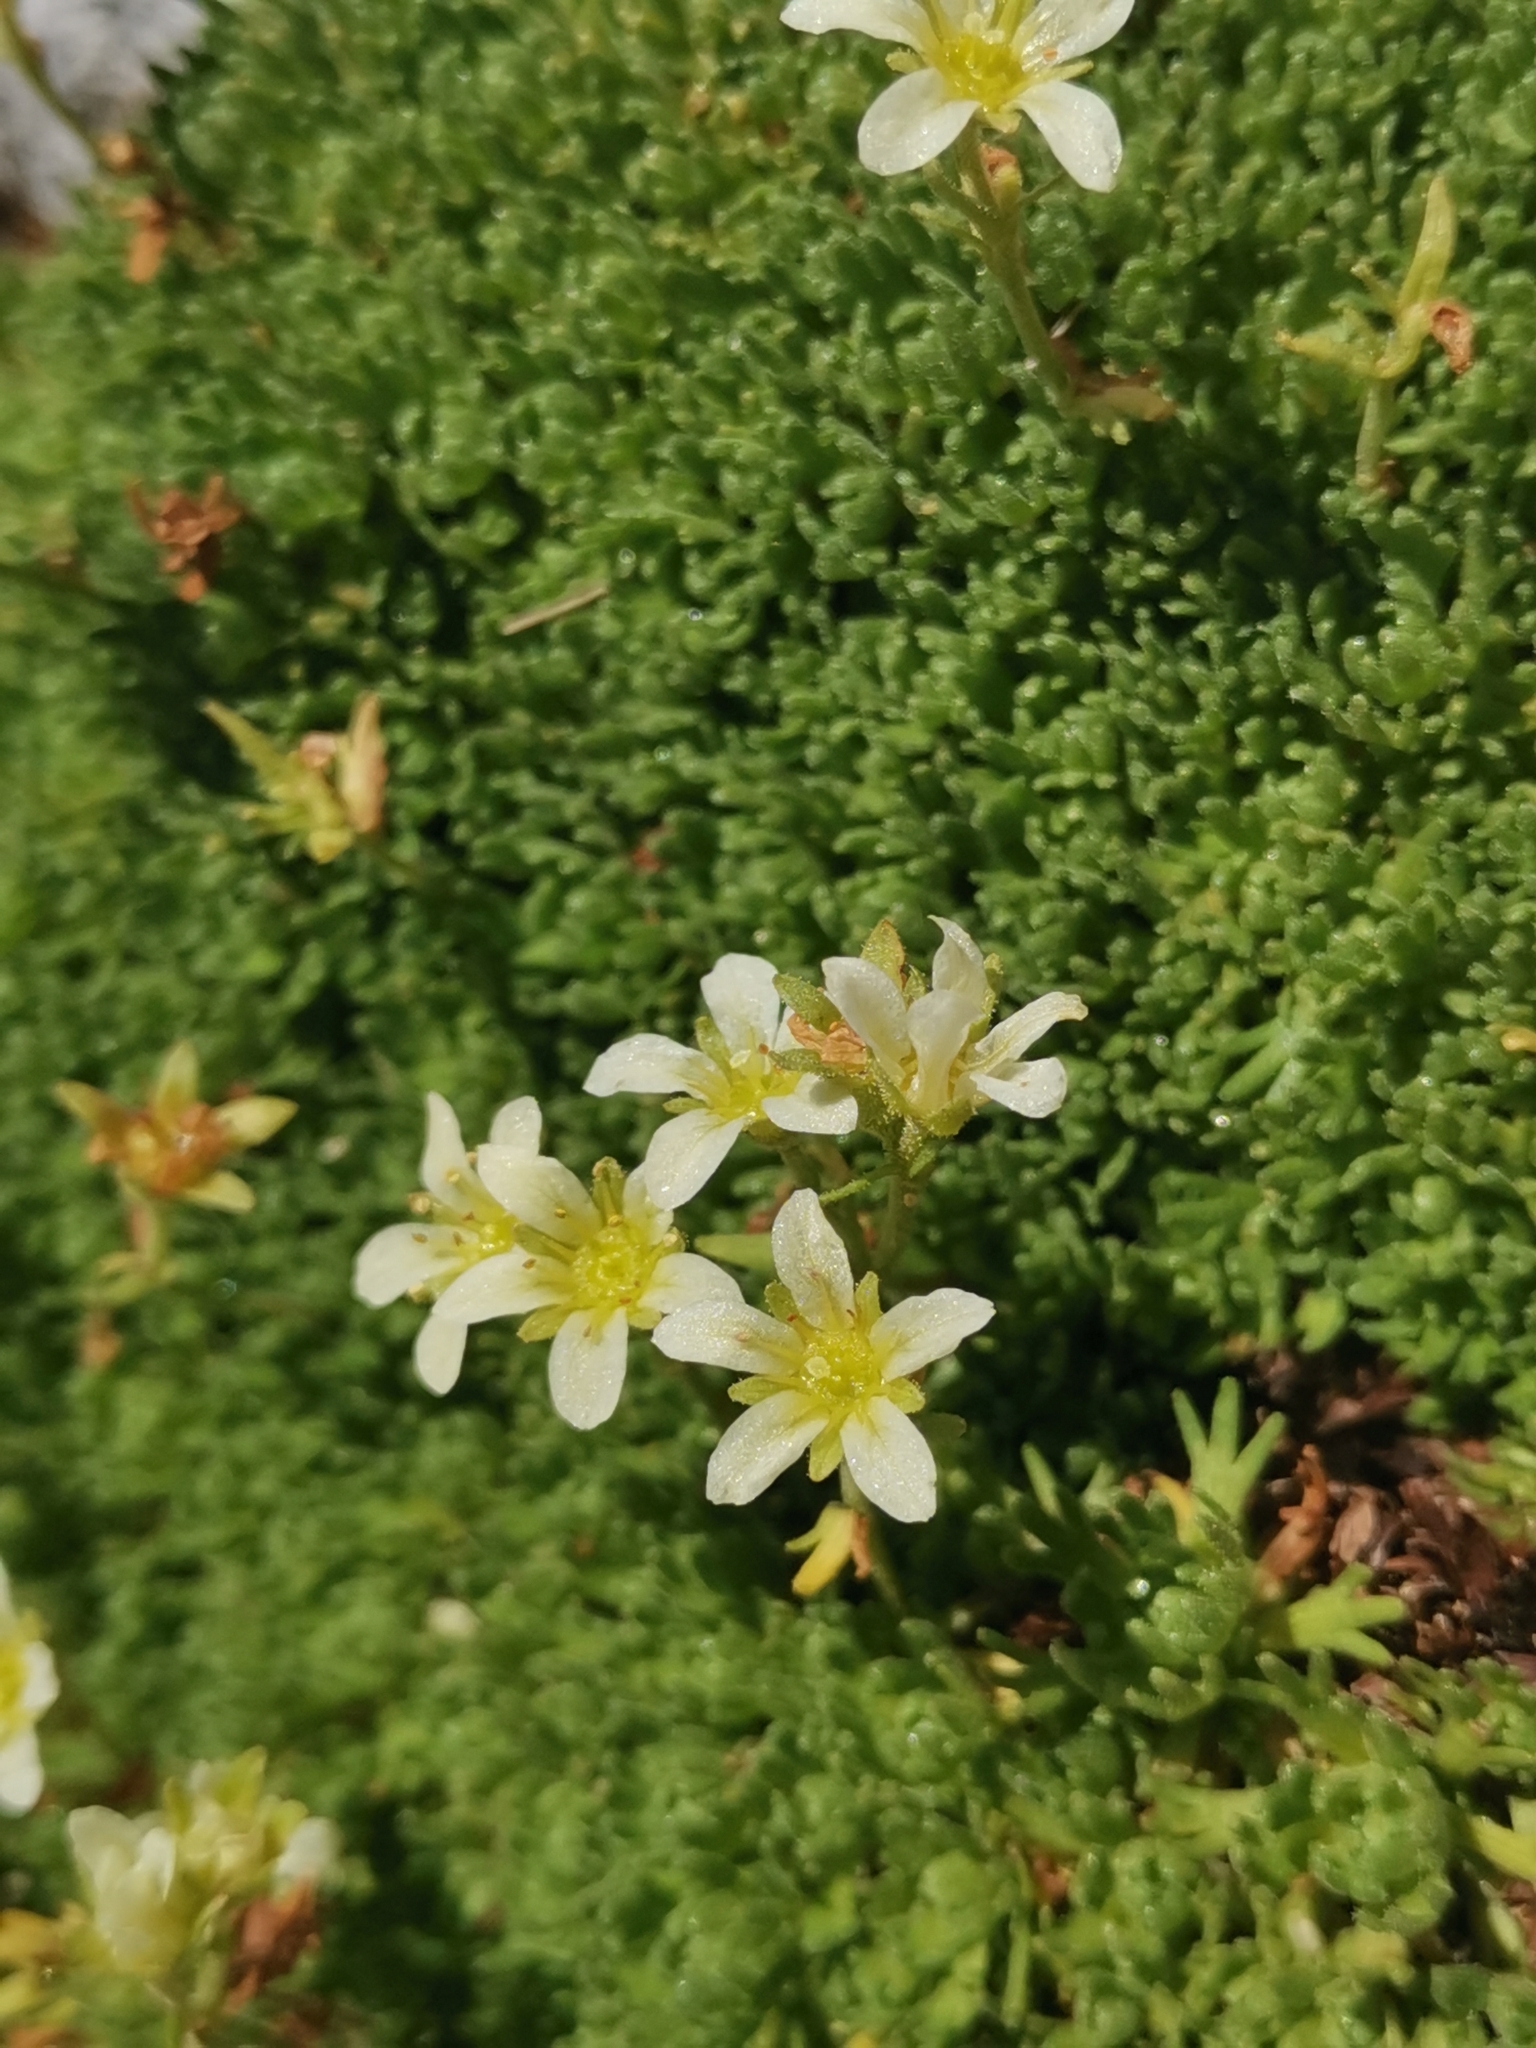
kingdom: Plantae
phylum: Tracheophyta
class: Magnoliopsida
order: Saxifragales
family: Saxifragaceae
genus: Saxifraga
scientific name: Saxifraga exarata
